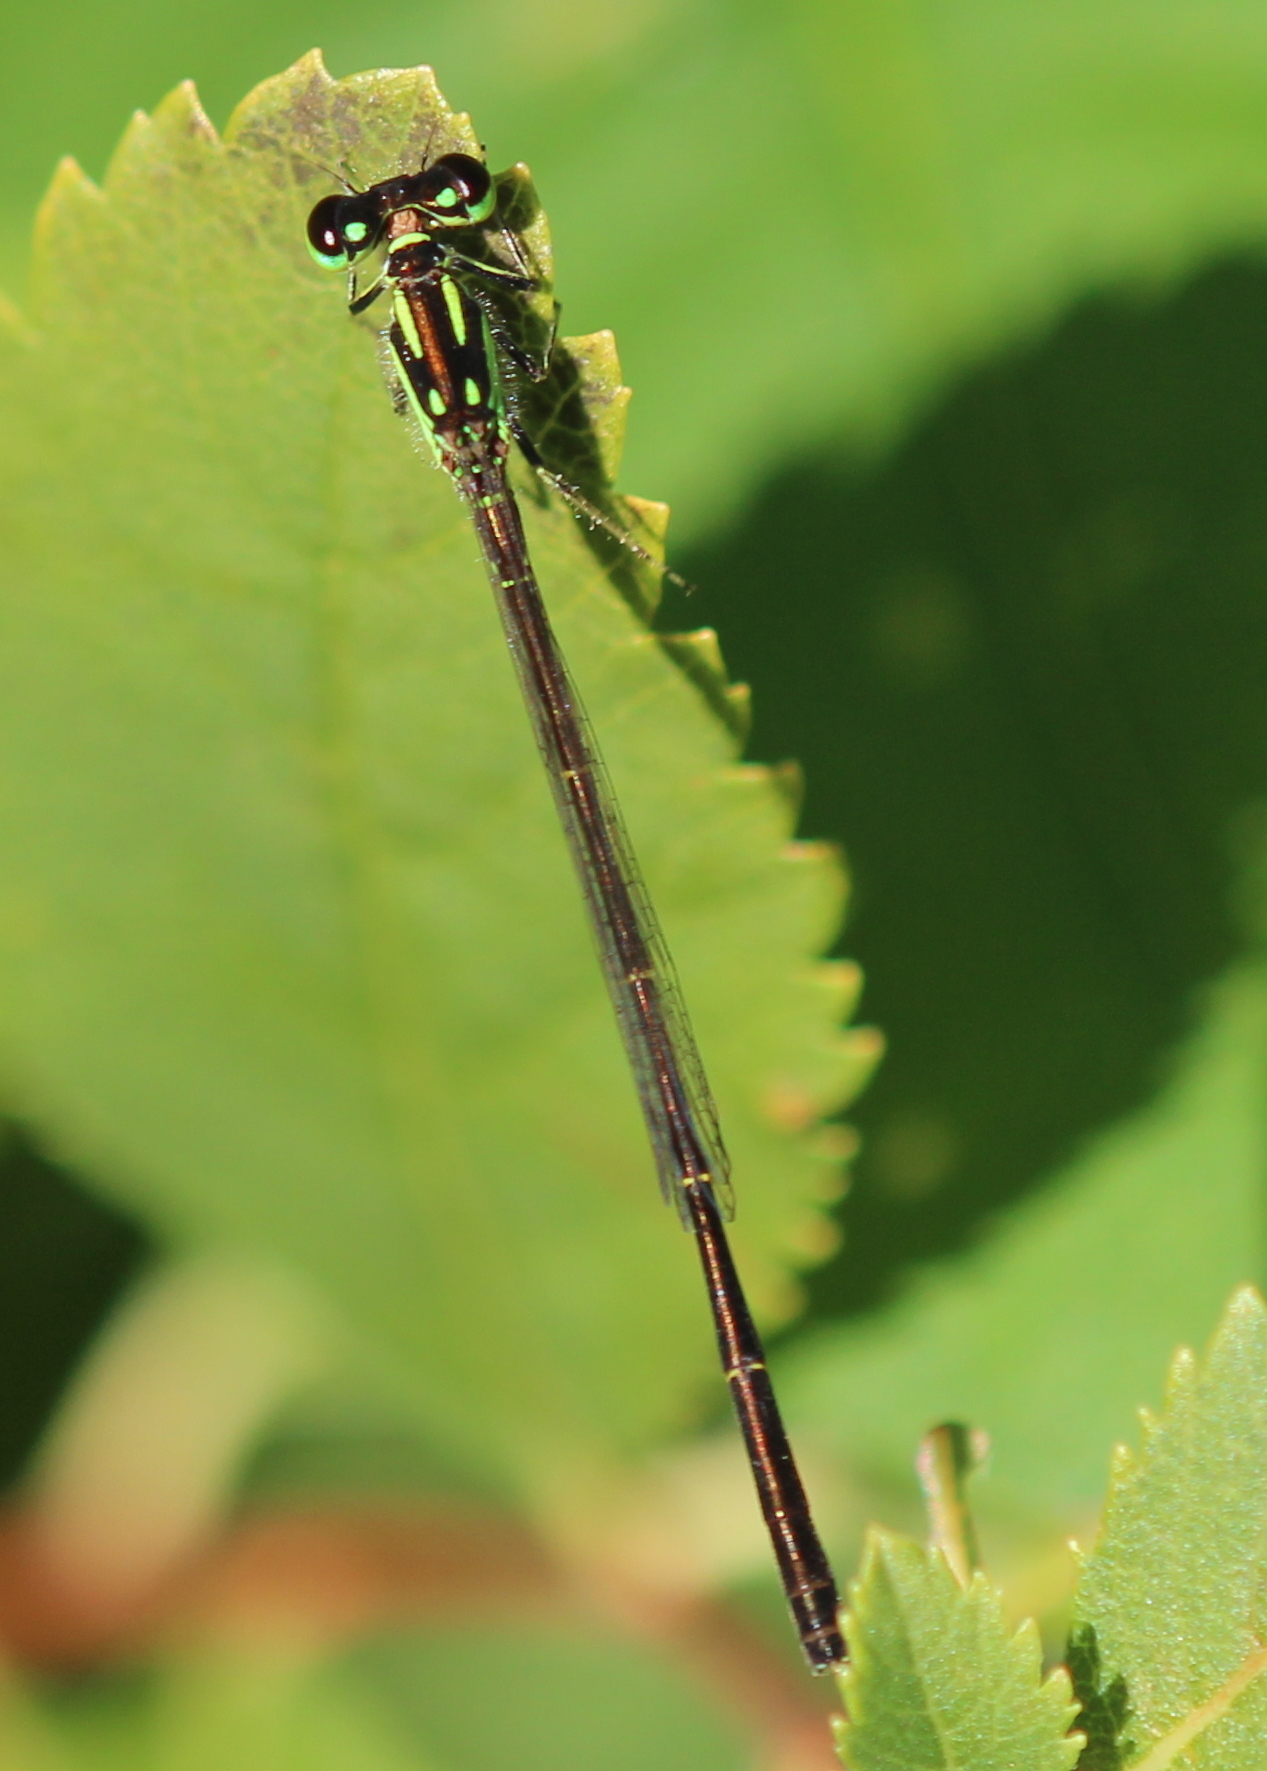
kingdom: Animalia
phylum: Arthropoda
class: Insecta
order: Odonata
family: Coenagrionidae
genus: Ischnura
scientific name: Ischnura posita
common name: Fragile forktail
